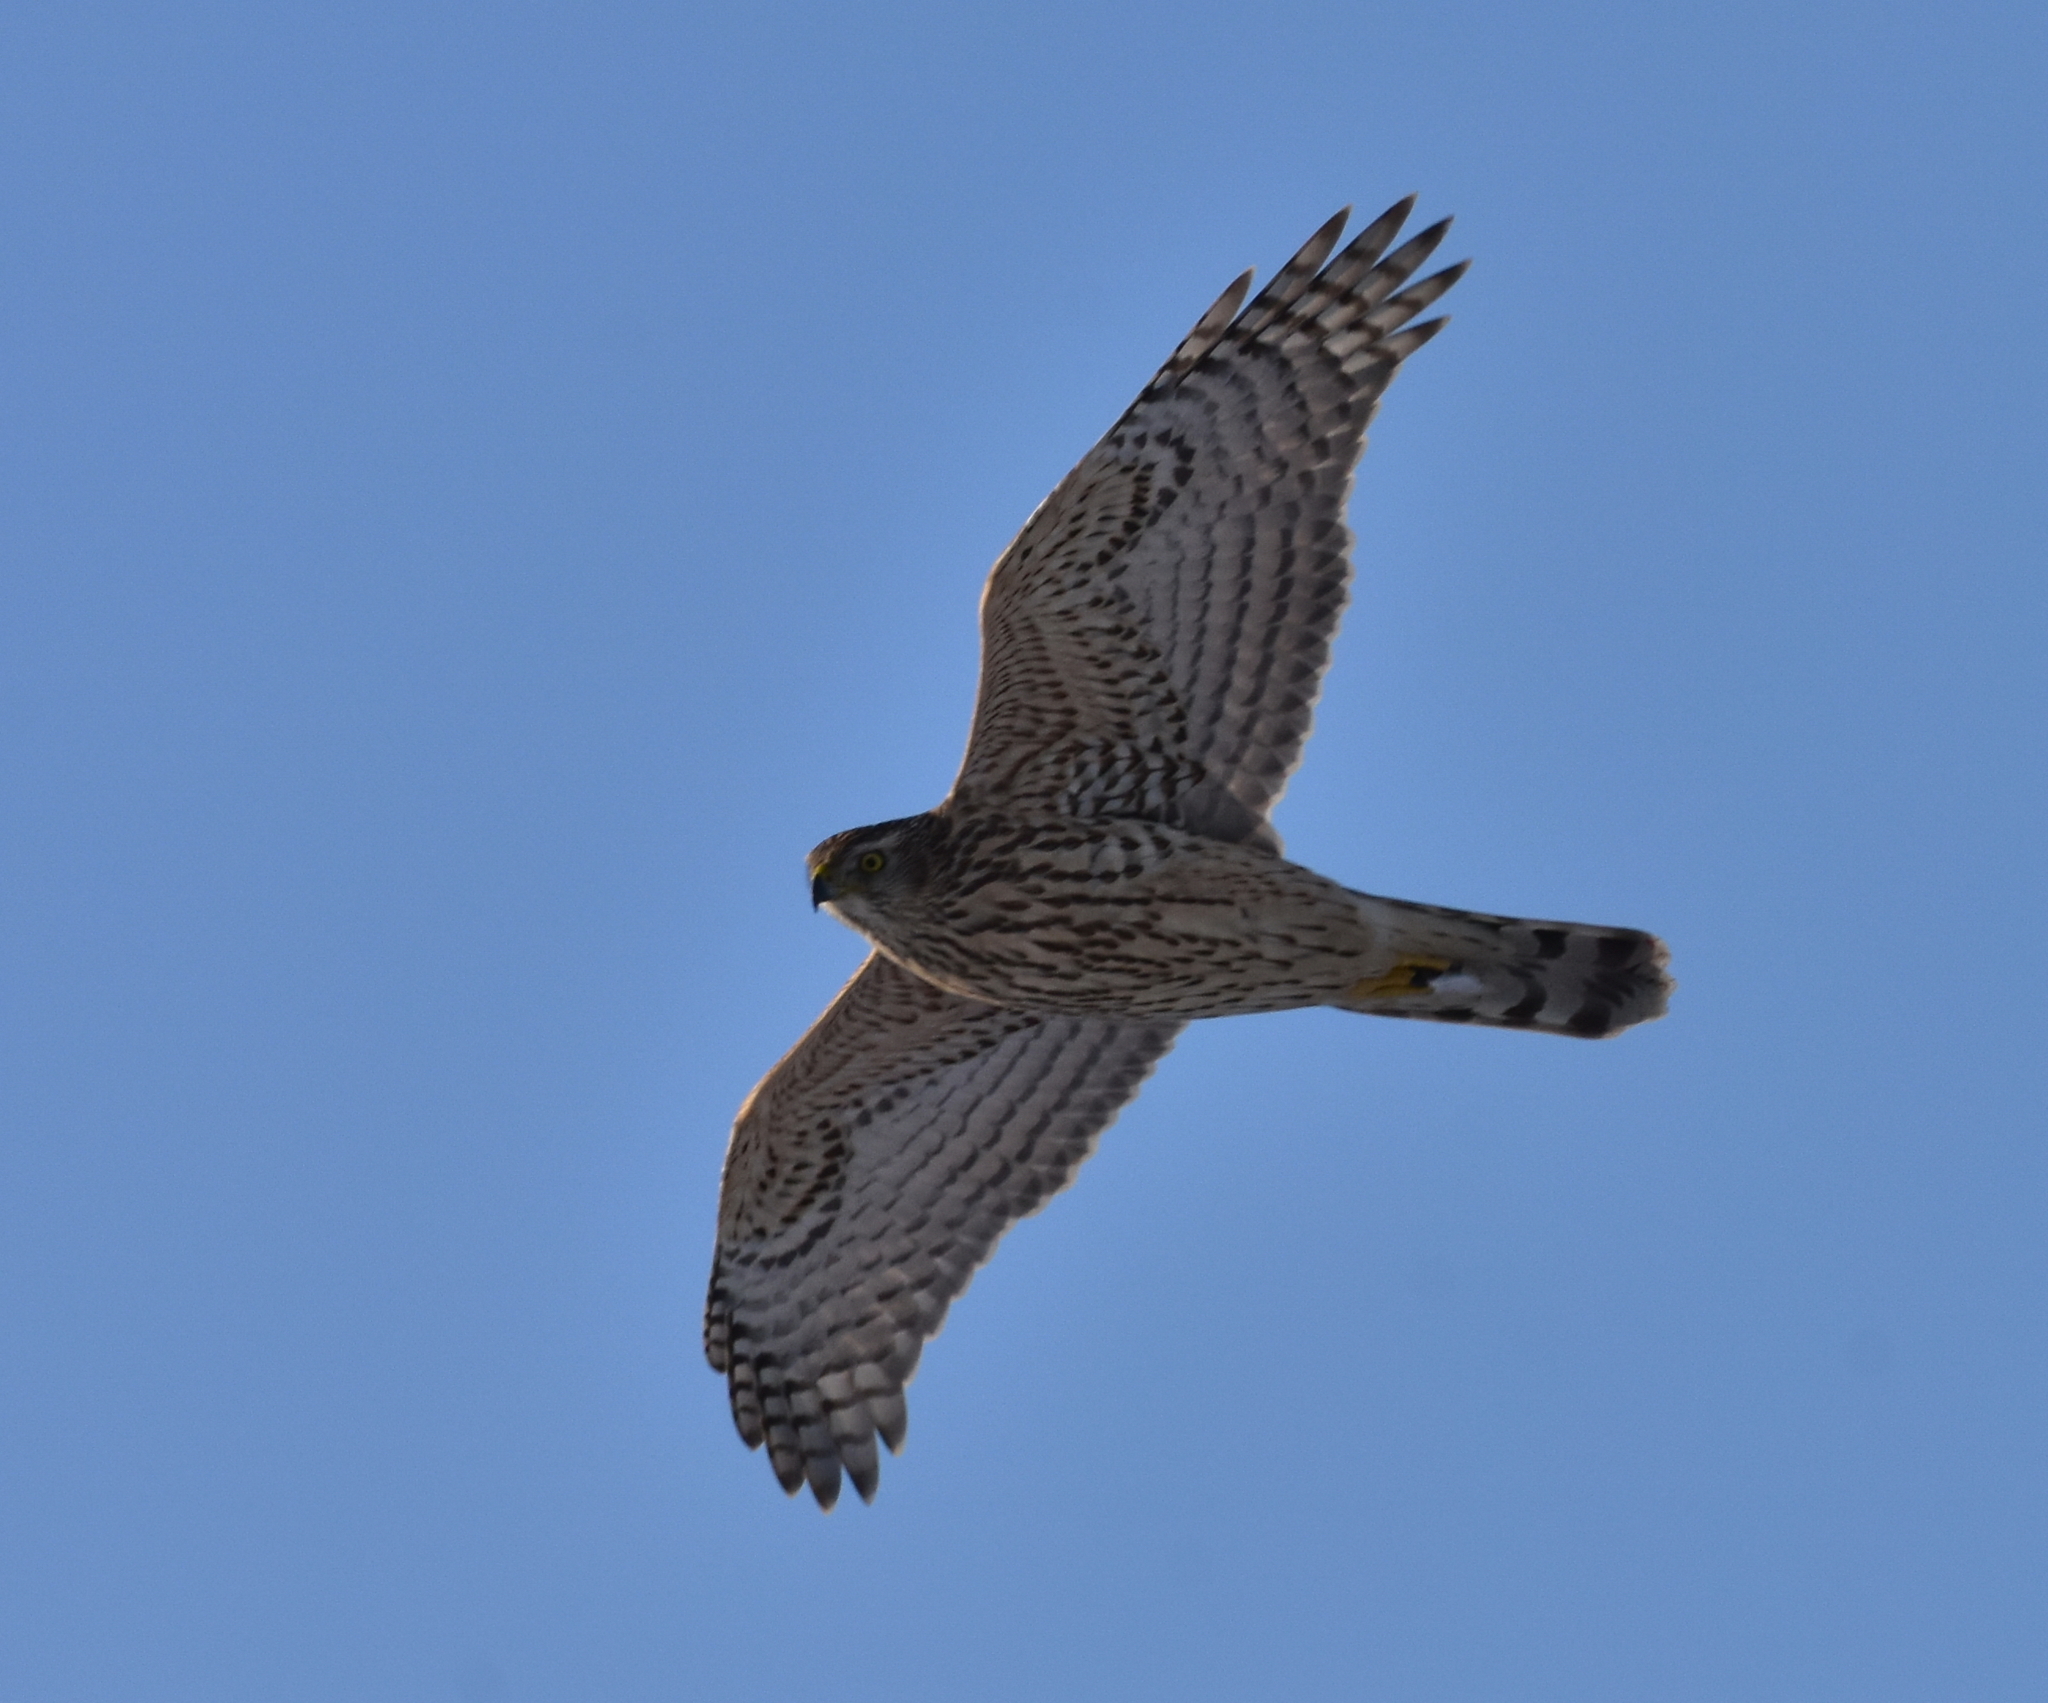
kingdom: Animalia
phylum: Chordata
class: Aves
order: Accipitriformes
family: Accipitridae
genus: Accipiter
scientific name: Accipiter gentilis
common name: Northern goshawk
